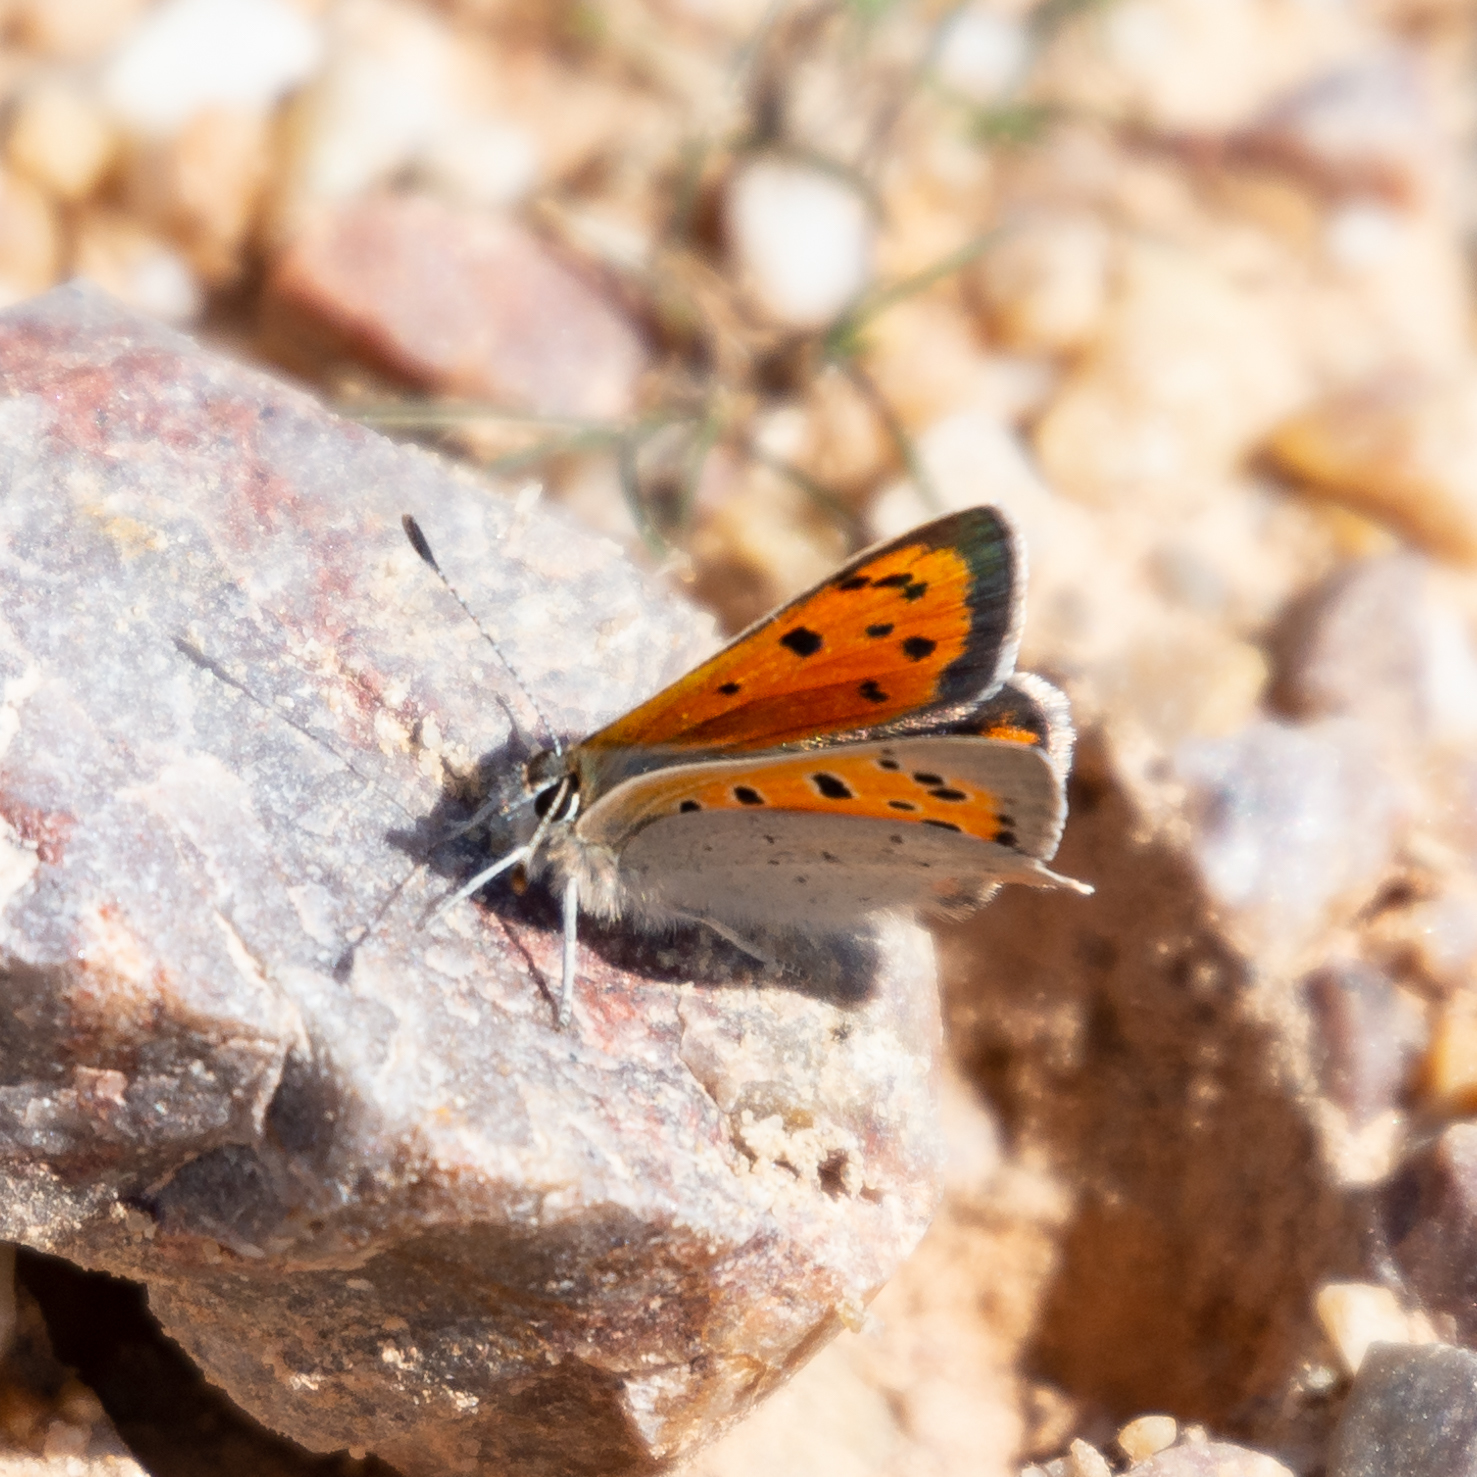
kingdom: Animalia
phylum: Arthropoda
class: Insecta
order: Lepidoptera
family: Lycaenidae
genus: Lycaena
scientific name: Lycaena phlaeas
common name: Small copper
